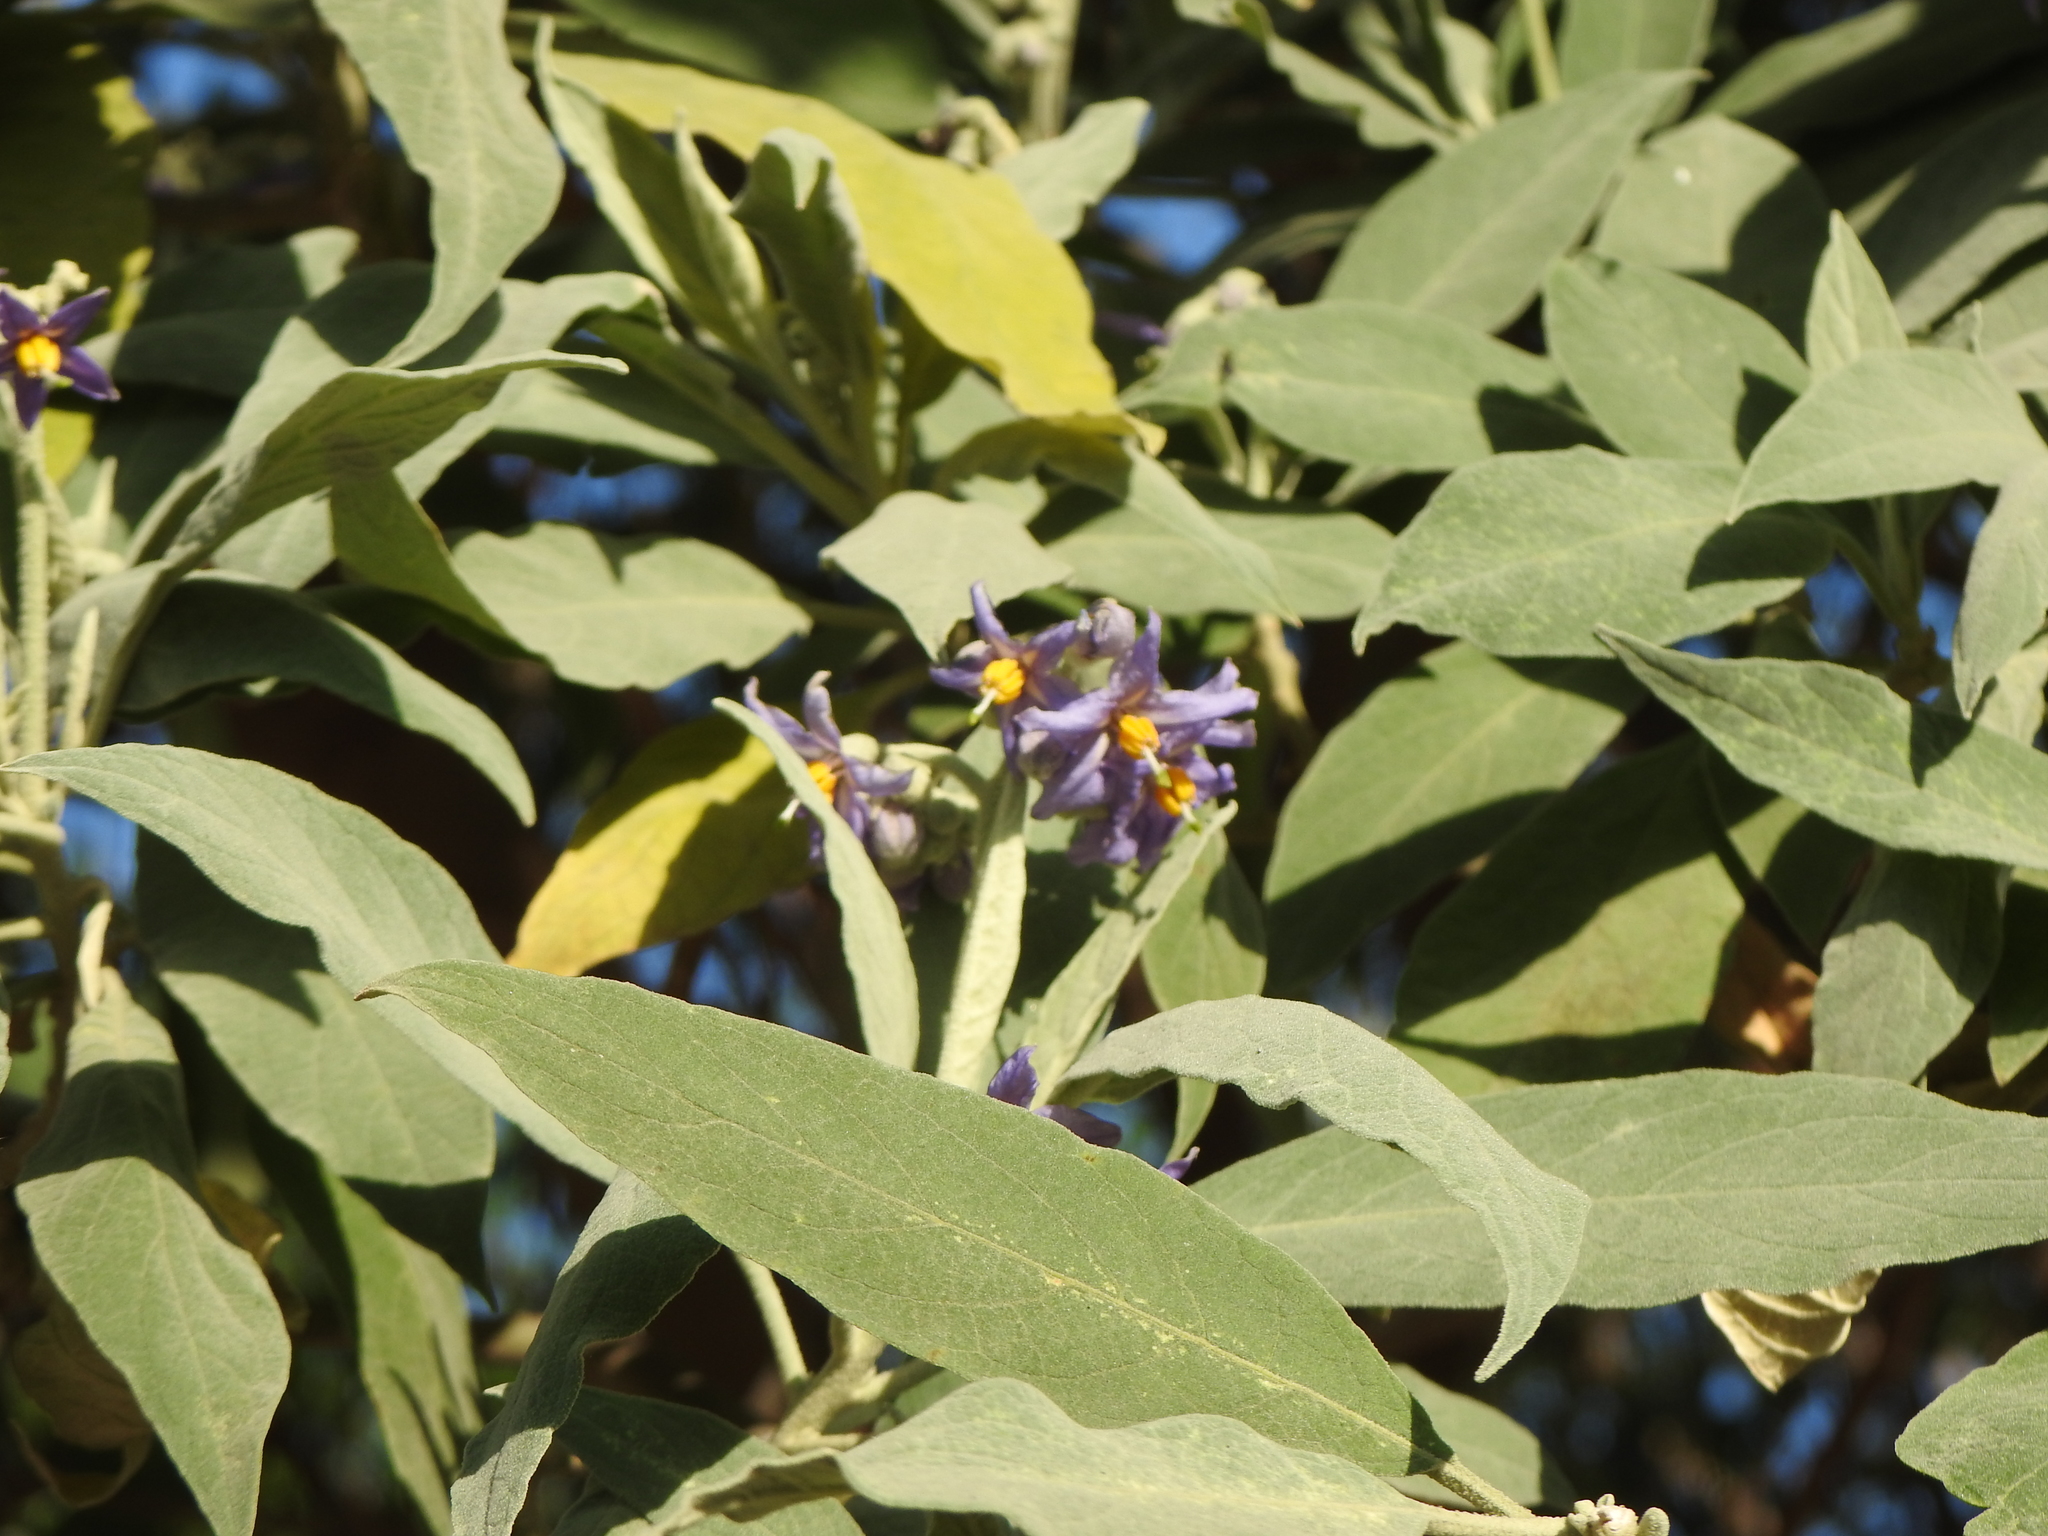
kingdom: Plantae
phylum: Tracheophyta
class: Magnoliopsida
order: Solanales
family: Solanaceae
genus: Solanum
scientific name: Solanum granulosoleprosum
